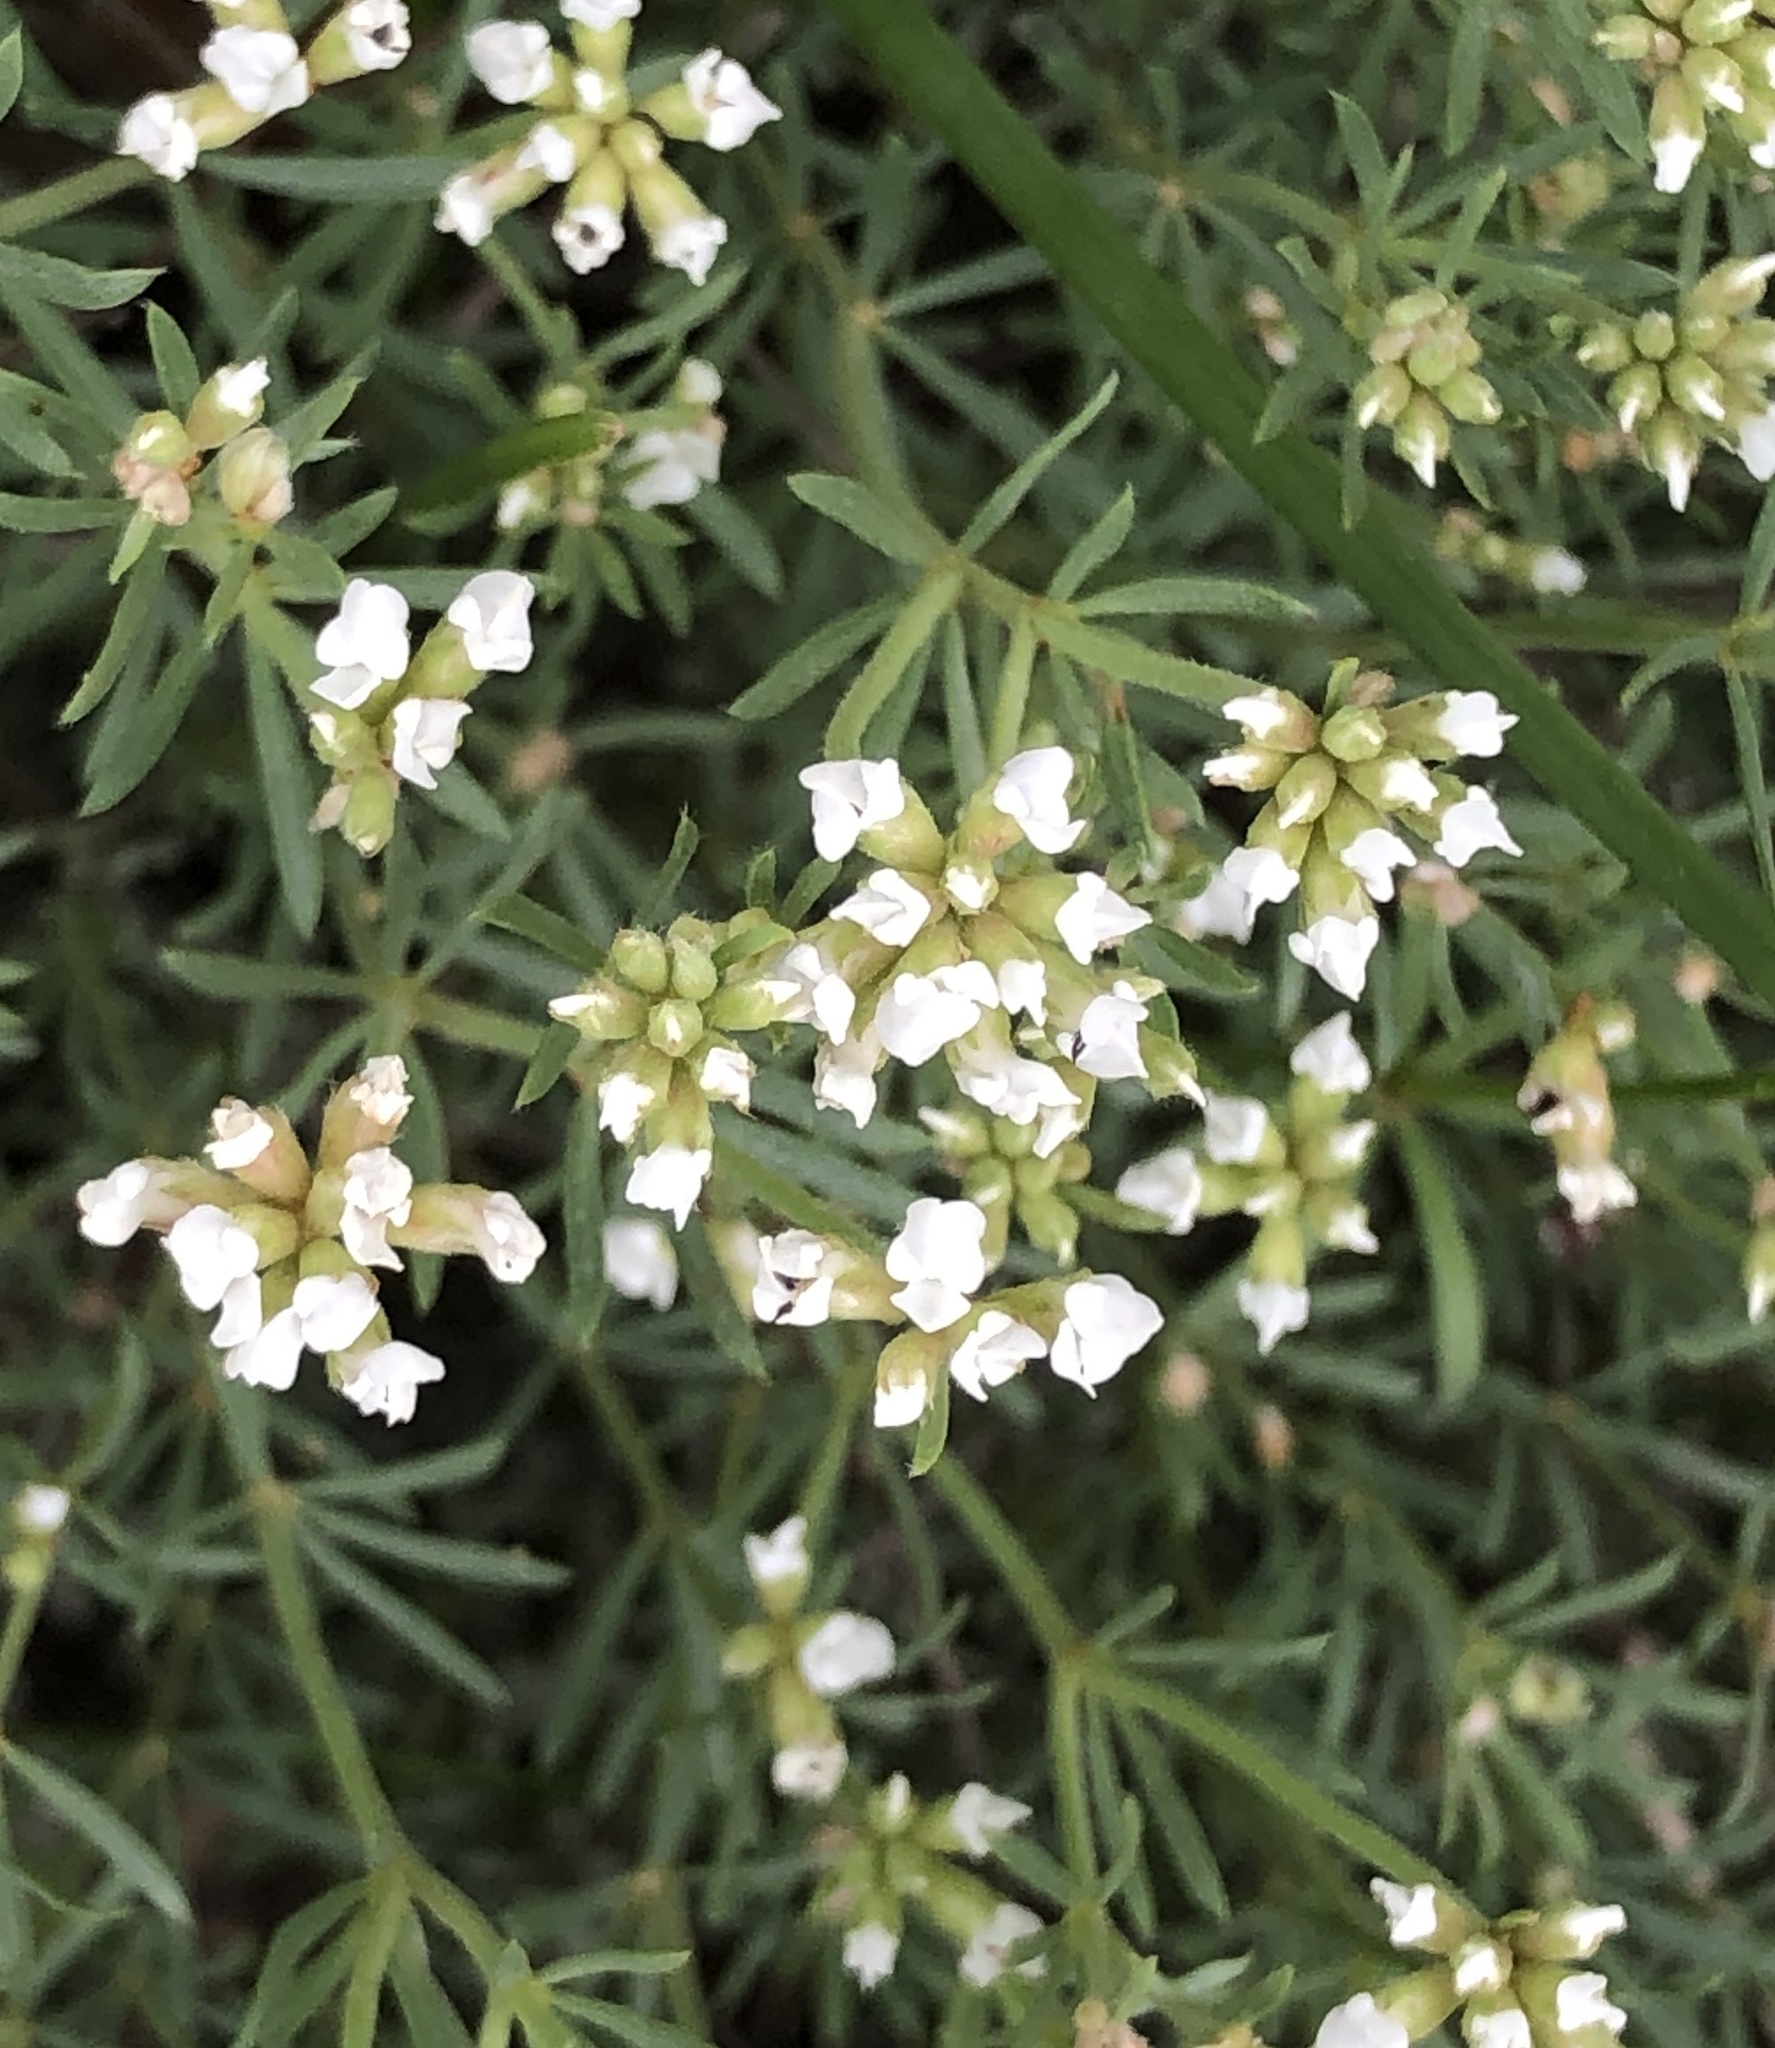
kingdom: Plantae
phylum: Tracheophyta
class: Magnoliopsida
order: Fabales
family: Fabaceae
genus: Lotus
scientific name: Lotus dorycnium
